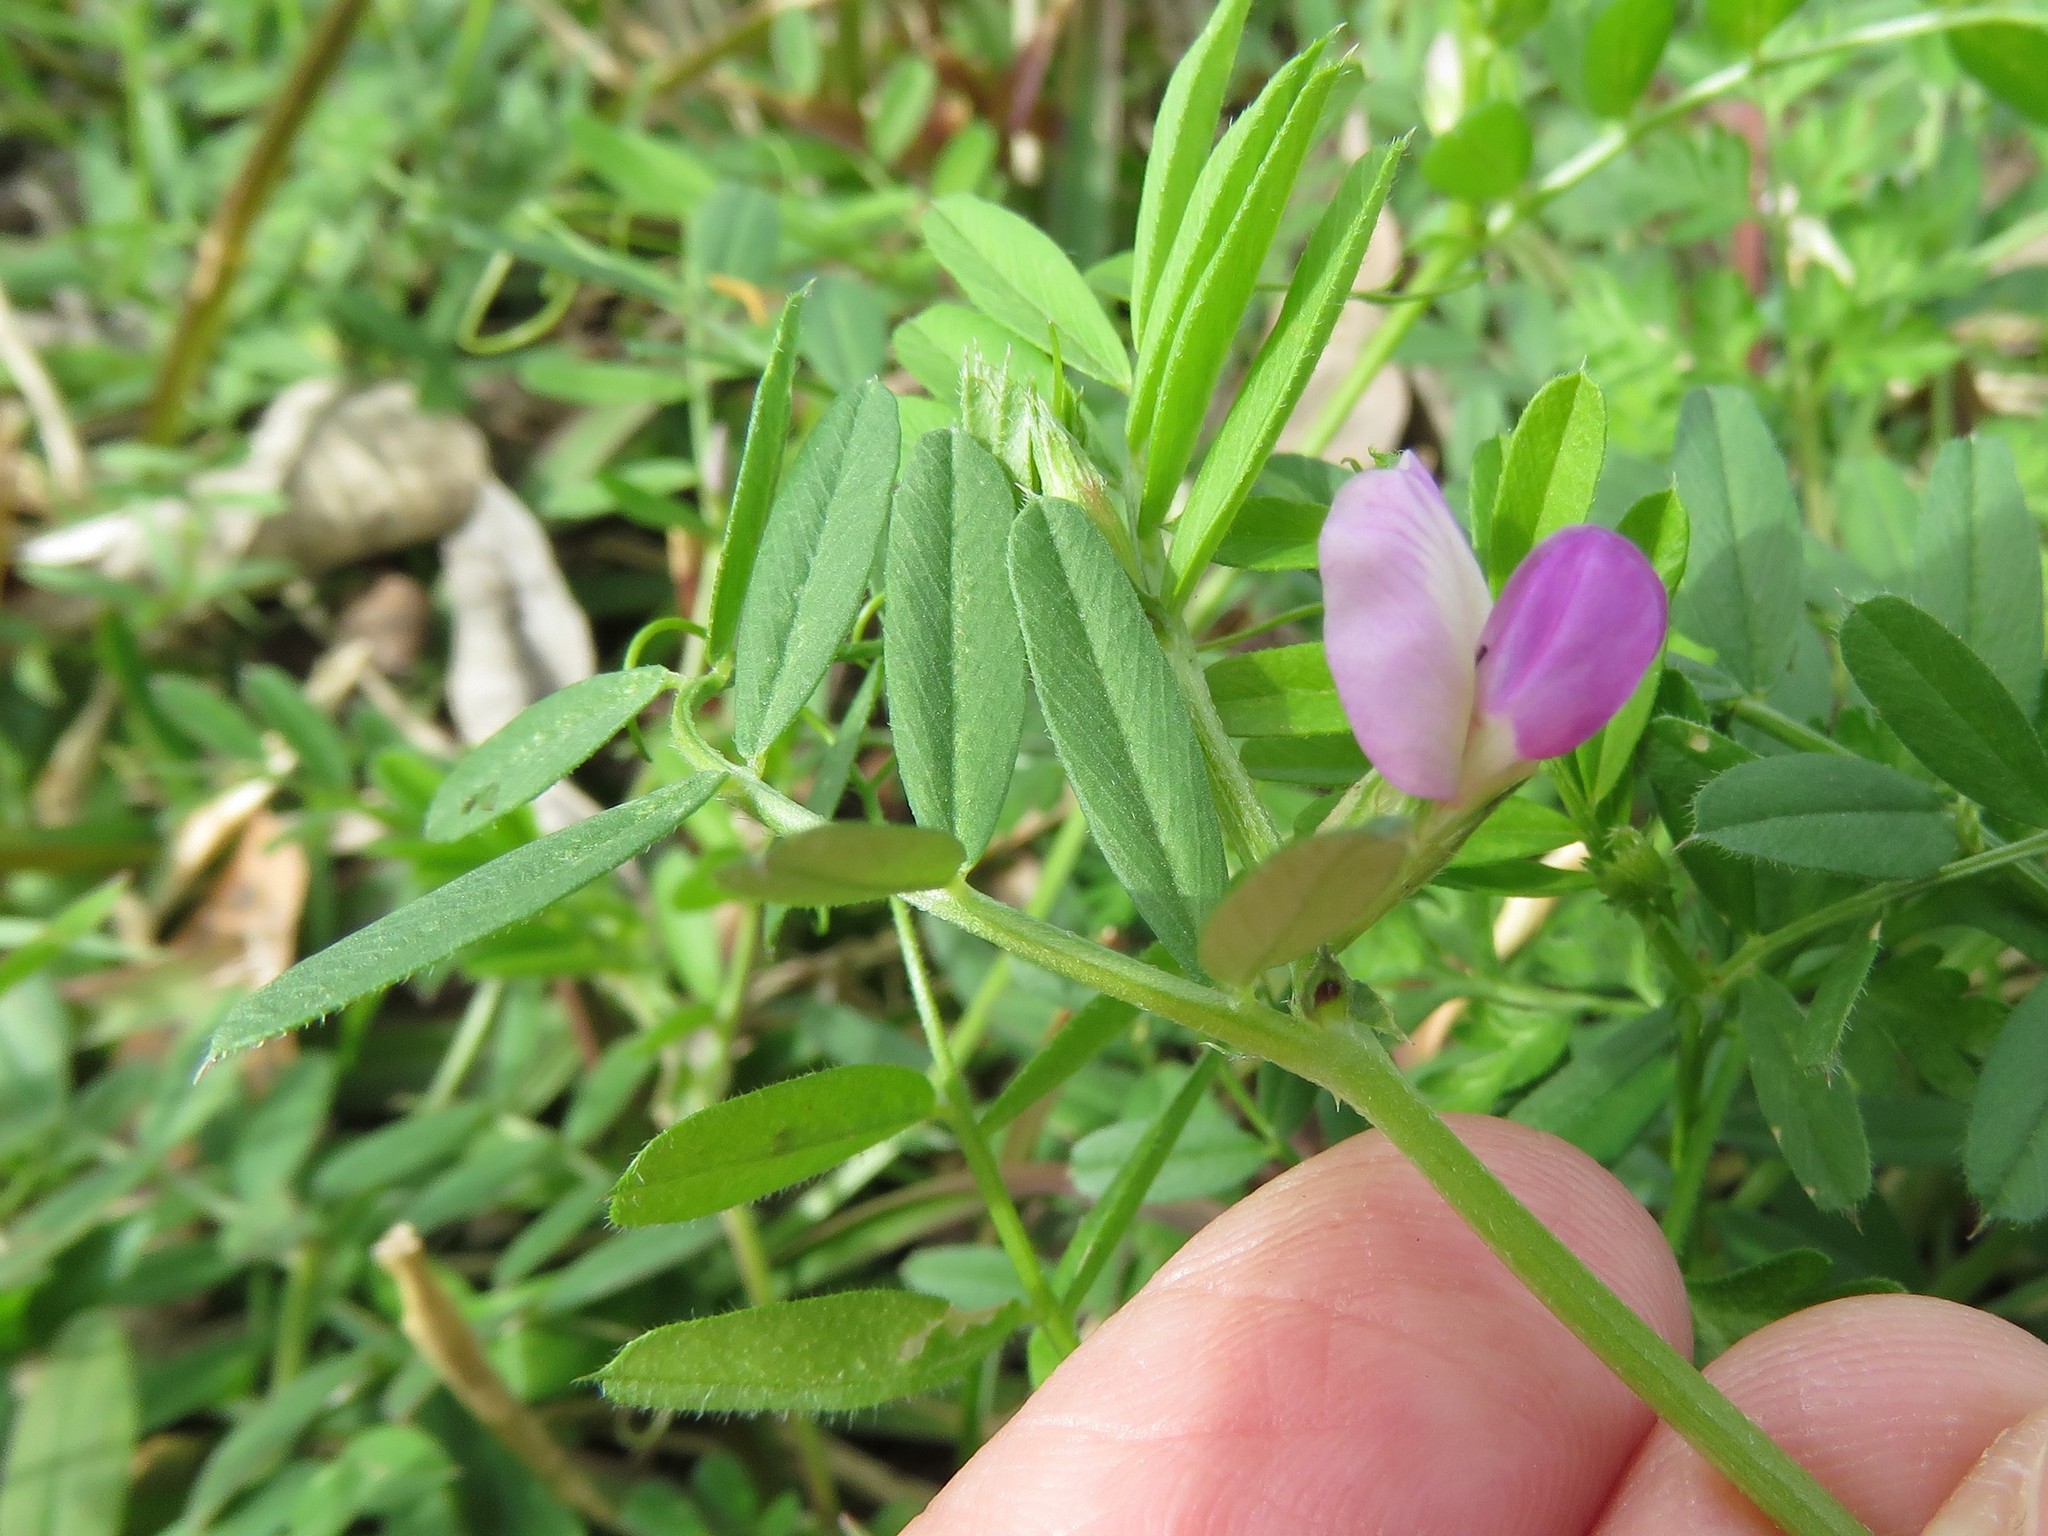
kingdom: Plantae
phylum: Tracheophyta
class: Magnoliopsida
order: Fabales
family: Fabaceae
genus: Vicia
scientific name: Vicia sativa
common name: Garden vetch
